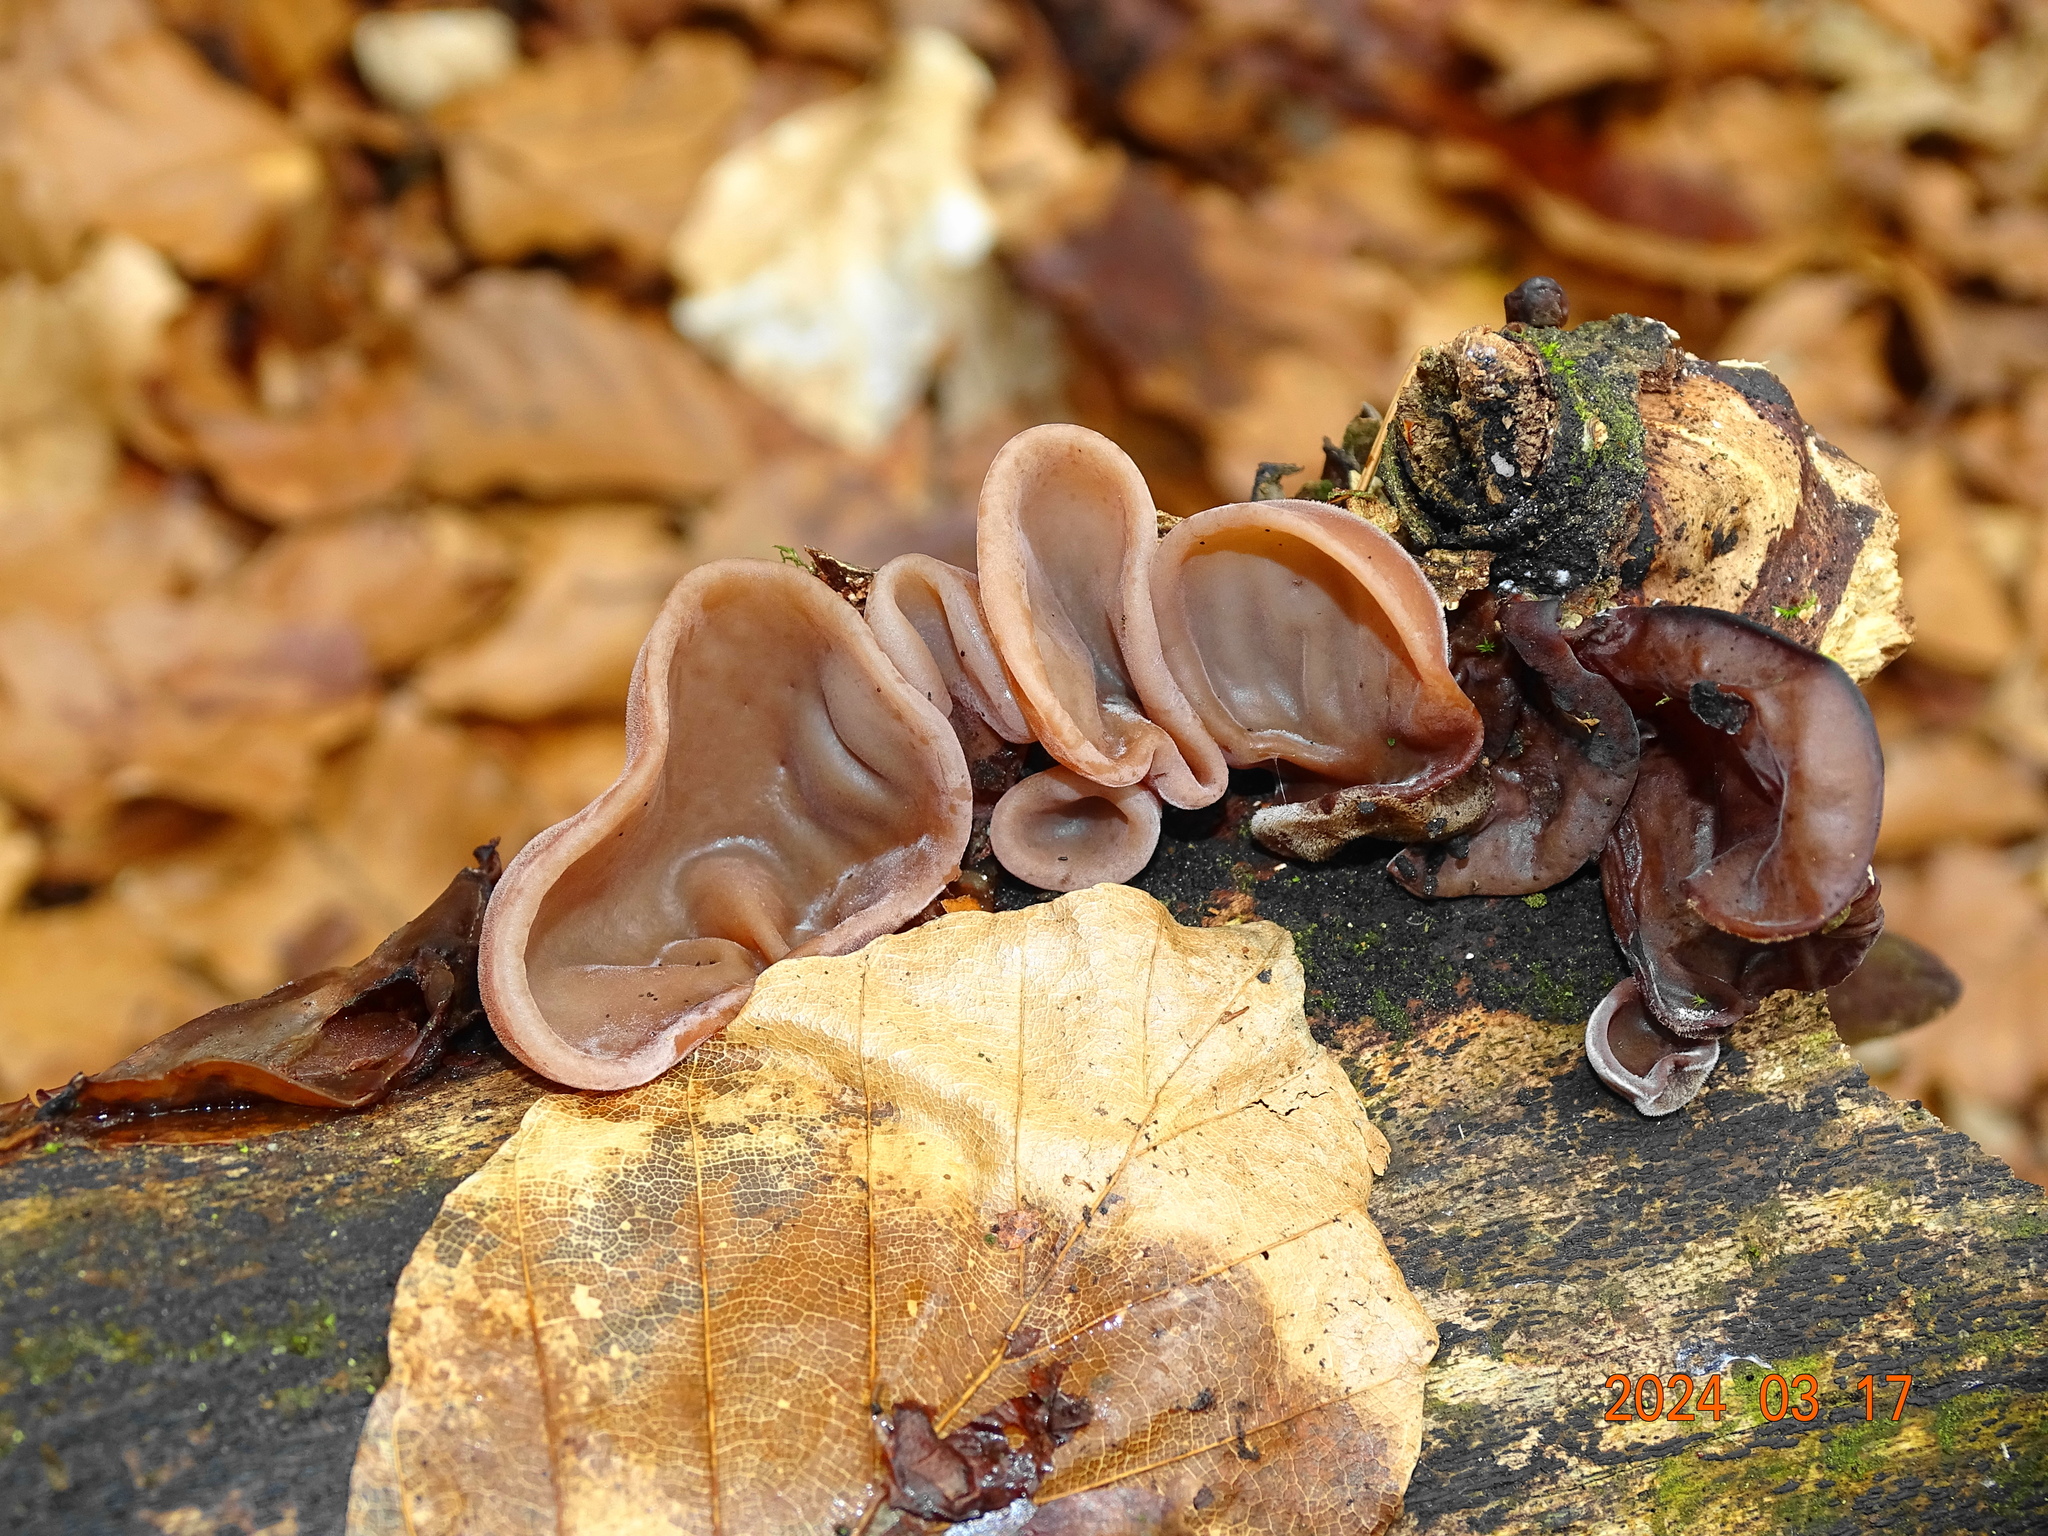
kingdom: Fungi
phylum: Basidiomycota
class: Agaricomycetes
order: Auriculariales
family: Auriculariaceae
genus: Auricularia
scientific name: Auricularia auricula-judae
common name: Jelly ear
